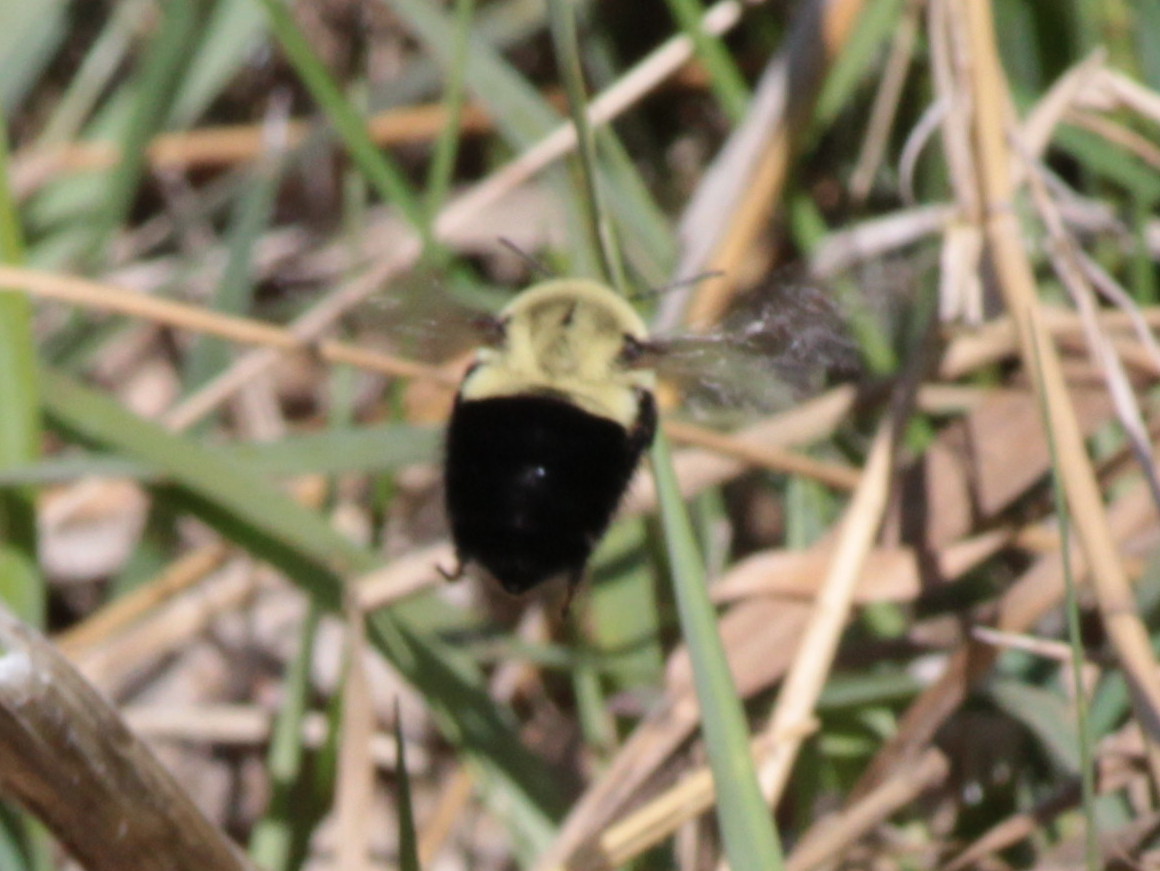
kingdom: Animalia
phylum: Arthropoda
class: Insecta
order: Hymenoptera
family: Apidae
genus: Bombus
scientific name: Bombus impatiens
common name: Common eastern bumble bee
